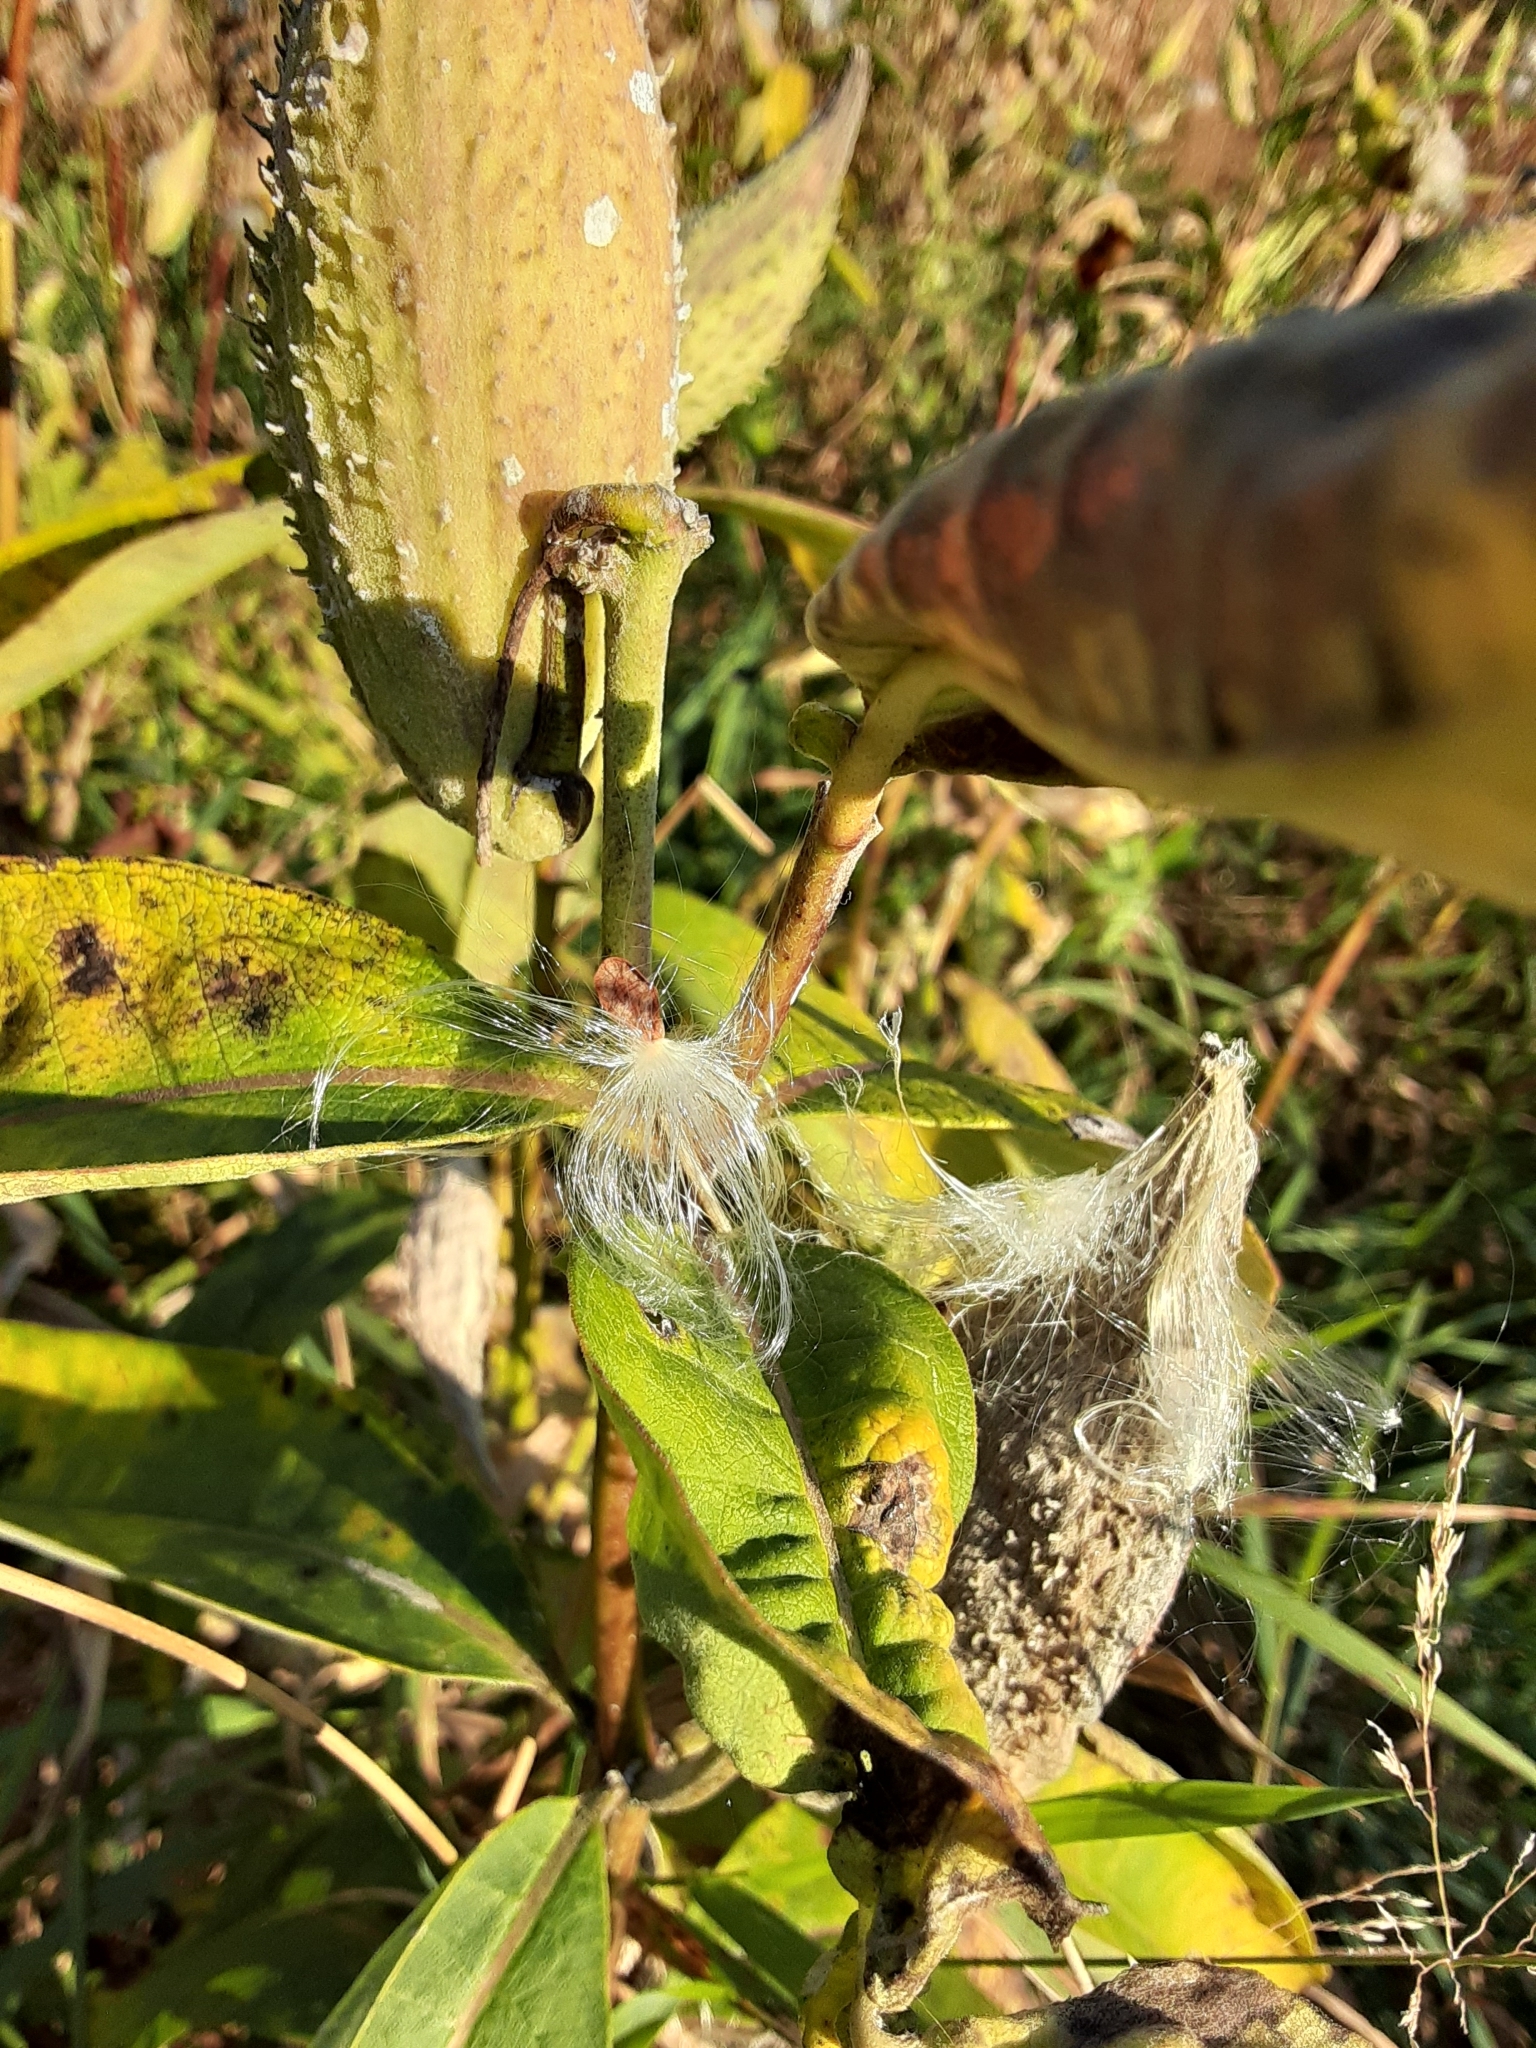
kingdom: Plantae
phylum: Tracheophyta
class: Magnoliopsida
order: Gentianales
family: Apocynaceae
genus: Asclepias
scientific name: Asclepias syriaca
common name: Common milkweed
